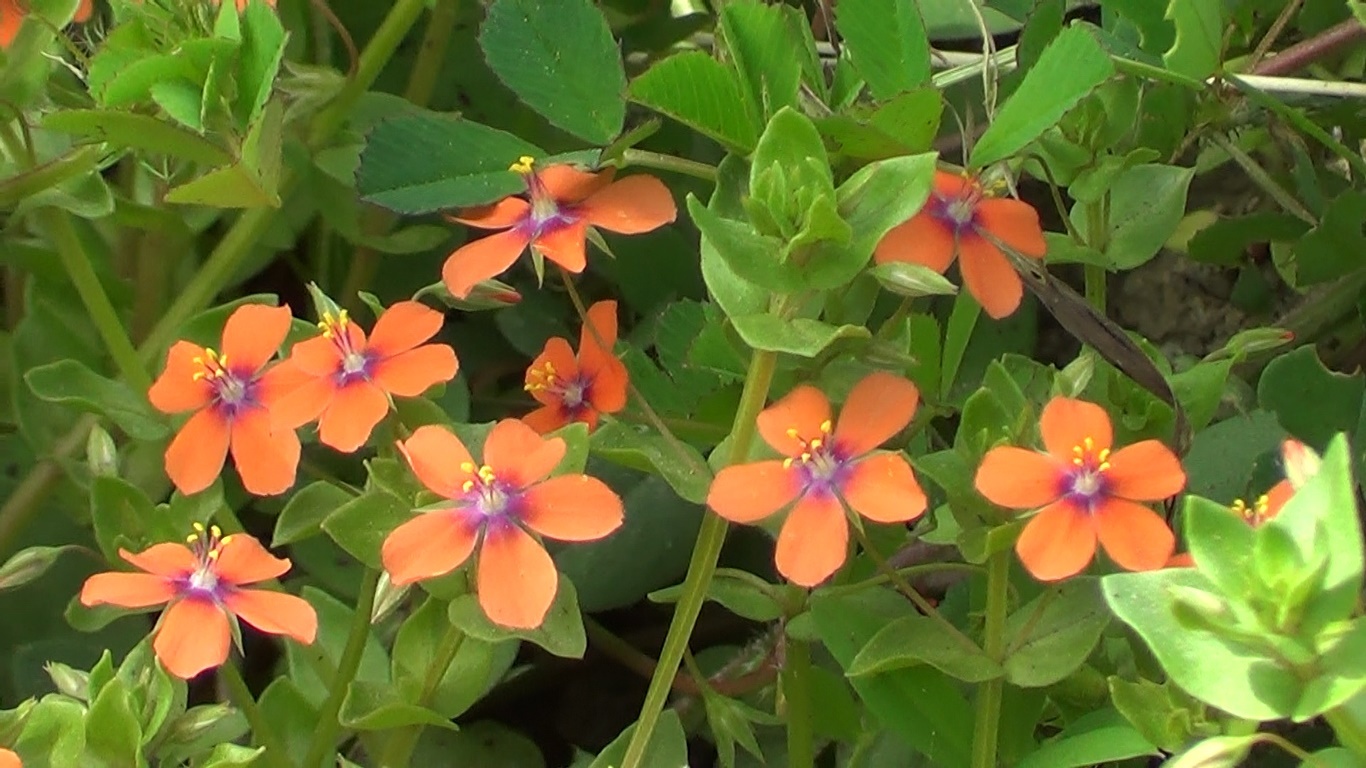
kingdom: Plantae
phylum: Tracheophyta
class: Magnoliopsida
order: Ericales
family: Primulaceae
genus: Lysimachia
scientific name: Lysimachia arvensis
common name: Scarlet pimpernel
